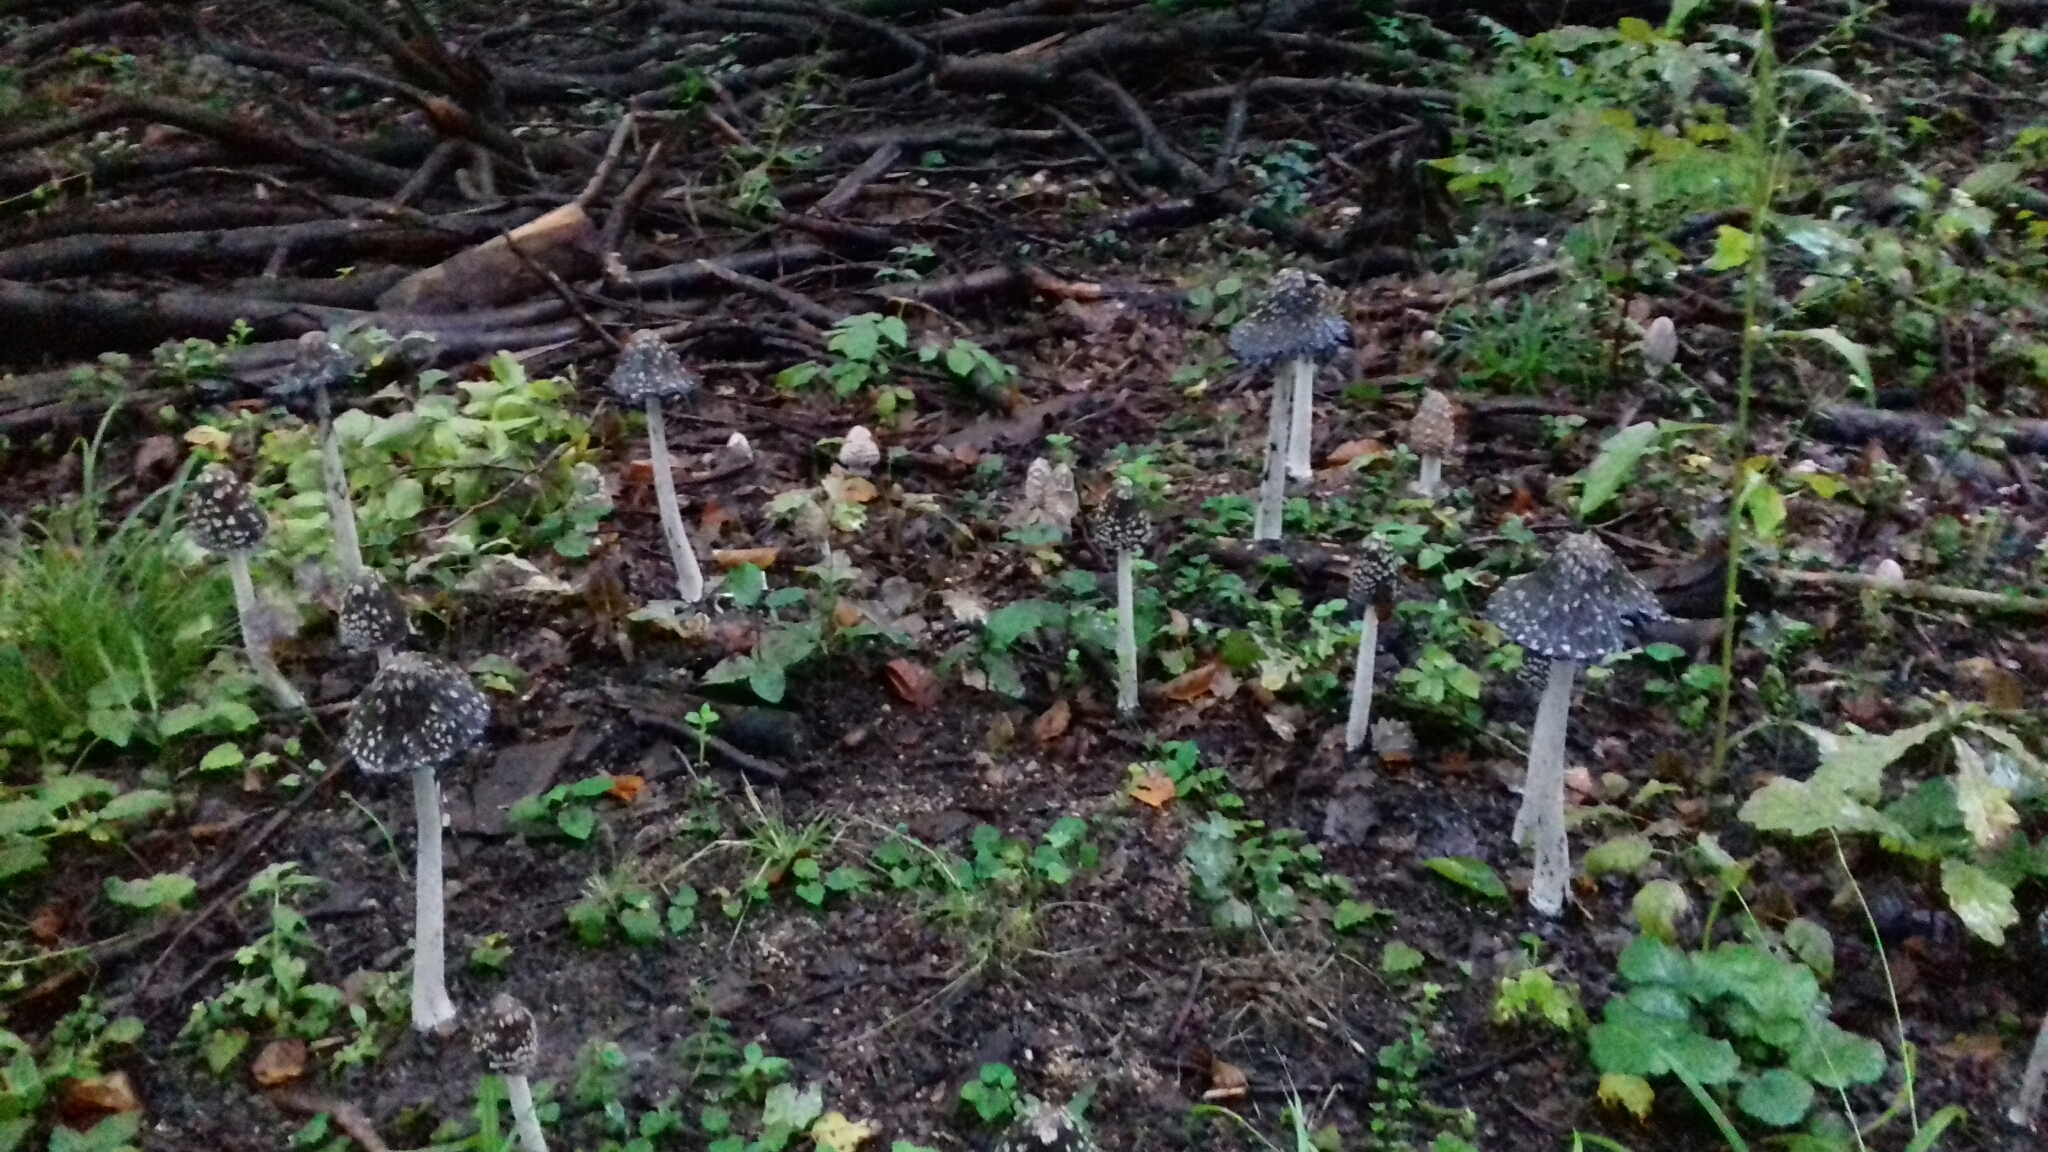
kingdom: Fungi
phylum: Basidiomycota
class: Agaricomycetes
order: Agaricales
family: Psathyrellaceae
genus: Coprinopsis
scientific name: Coprinopsis picacea
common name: Magpie inkcap
